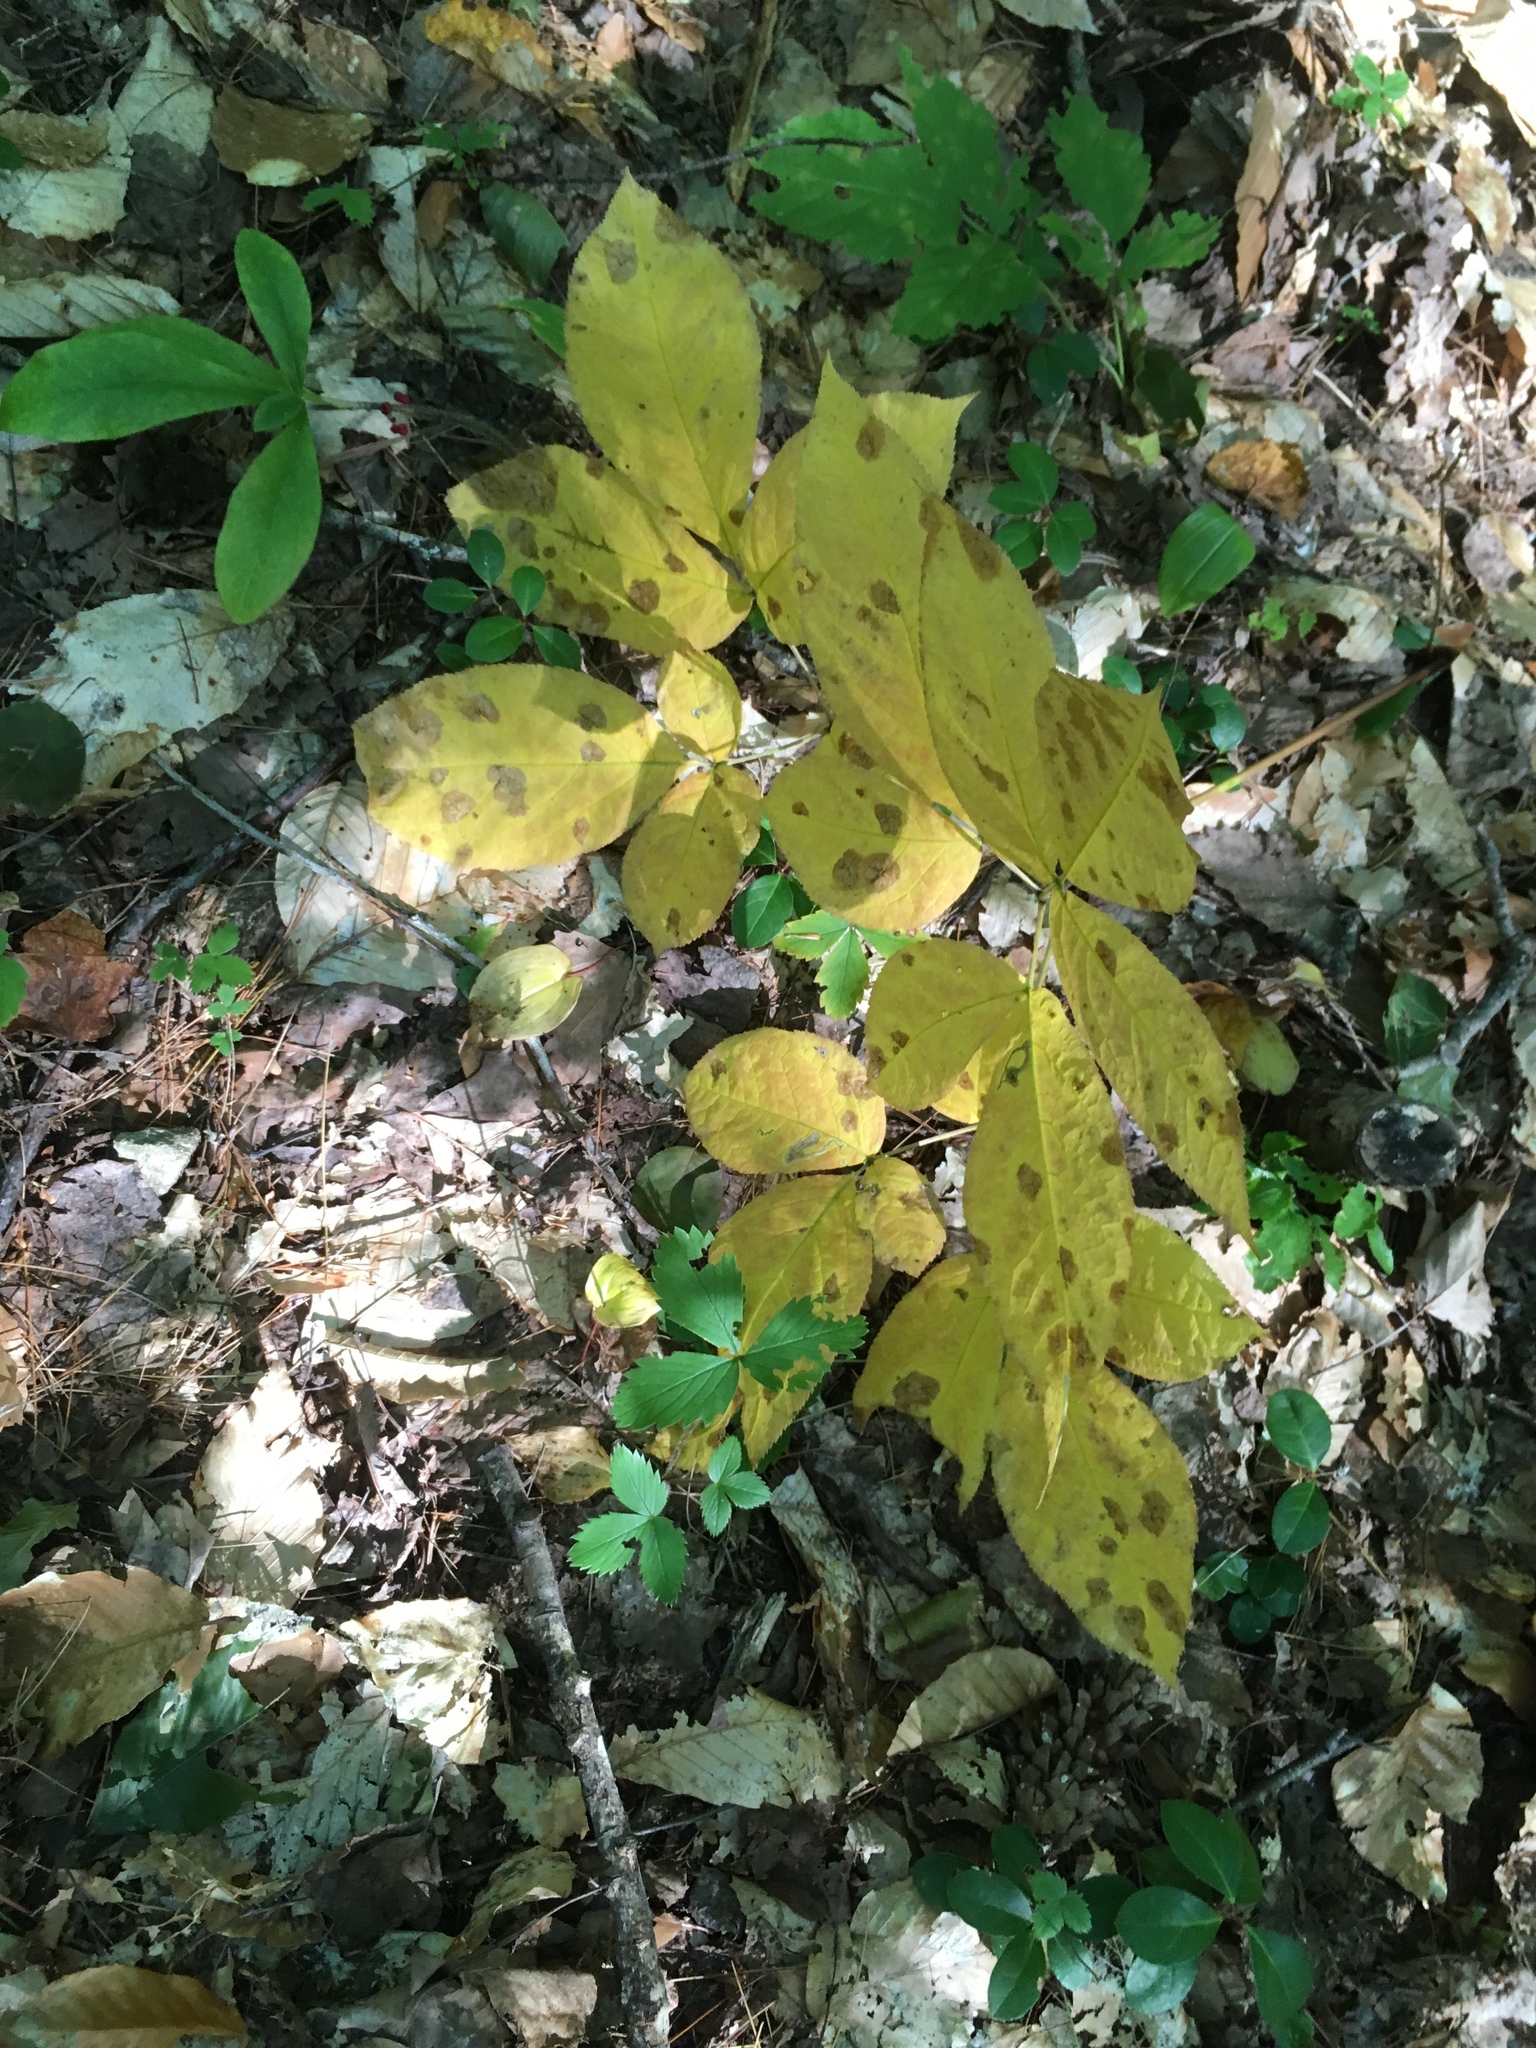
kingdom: Plantae
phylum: Tracheophyta
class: Magnoliopsida
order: Apiales
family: Araliaceae
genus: Aralia
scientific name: Aralia nudicaulis
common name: Wild sarsaparilla
